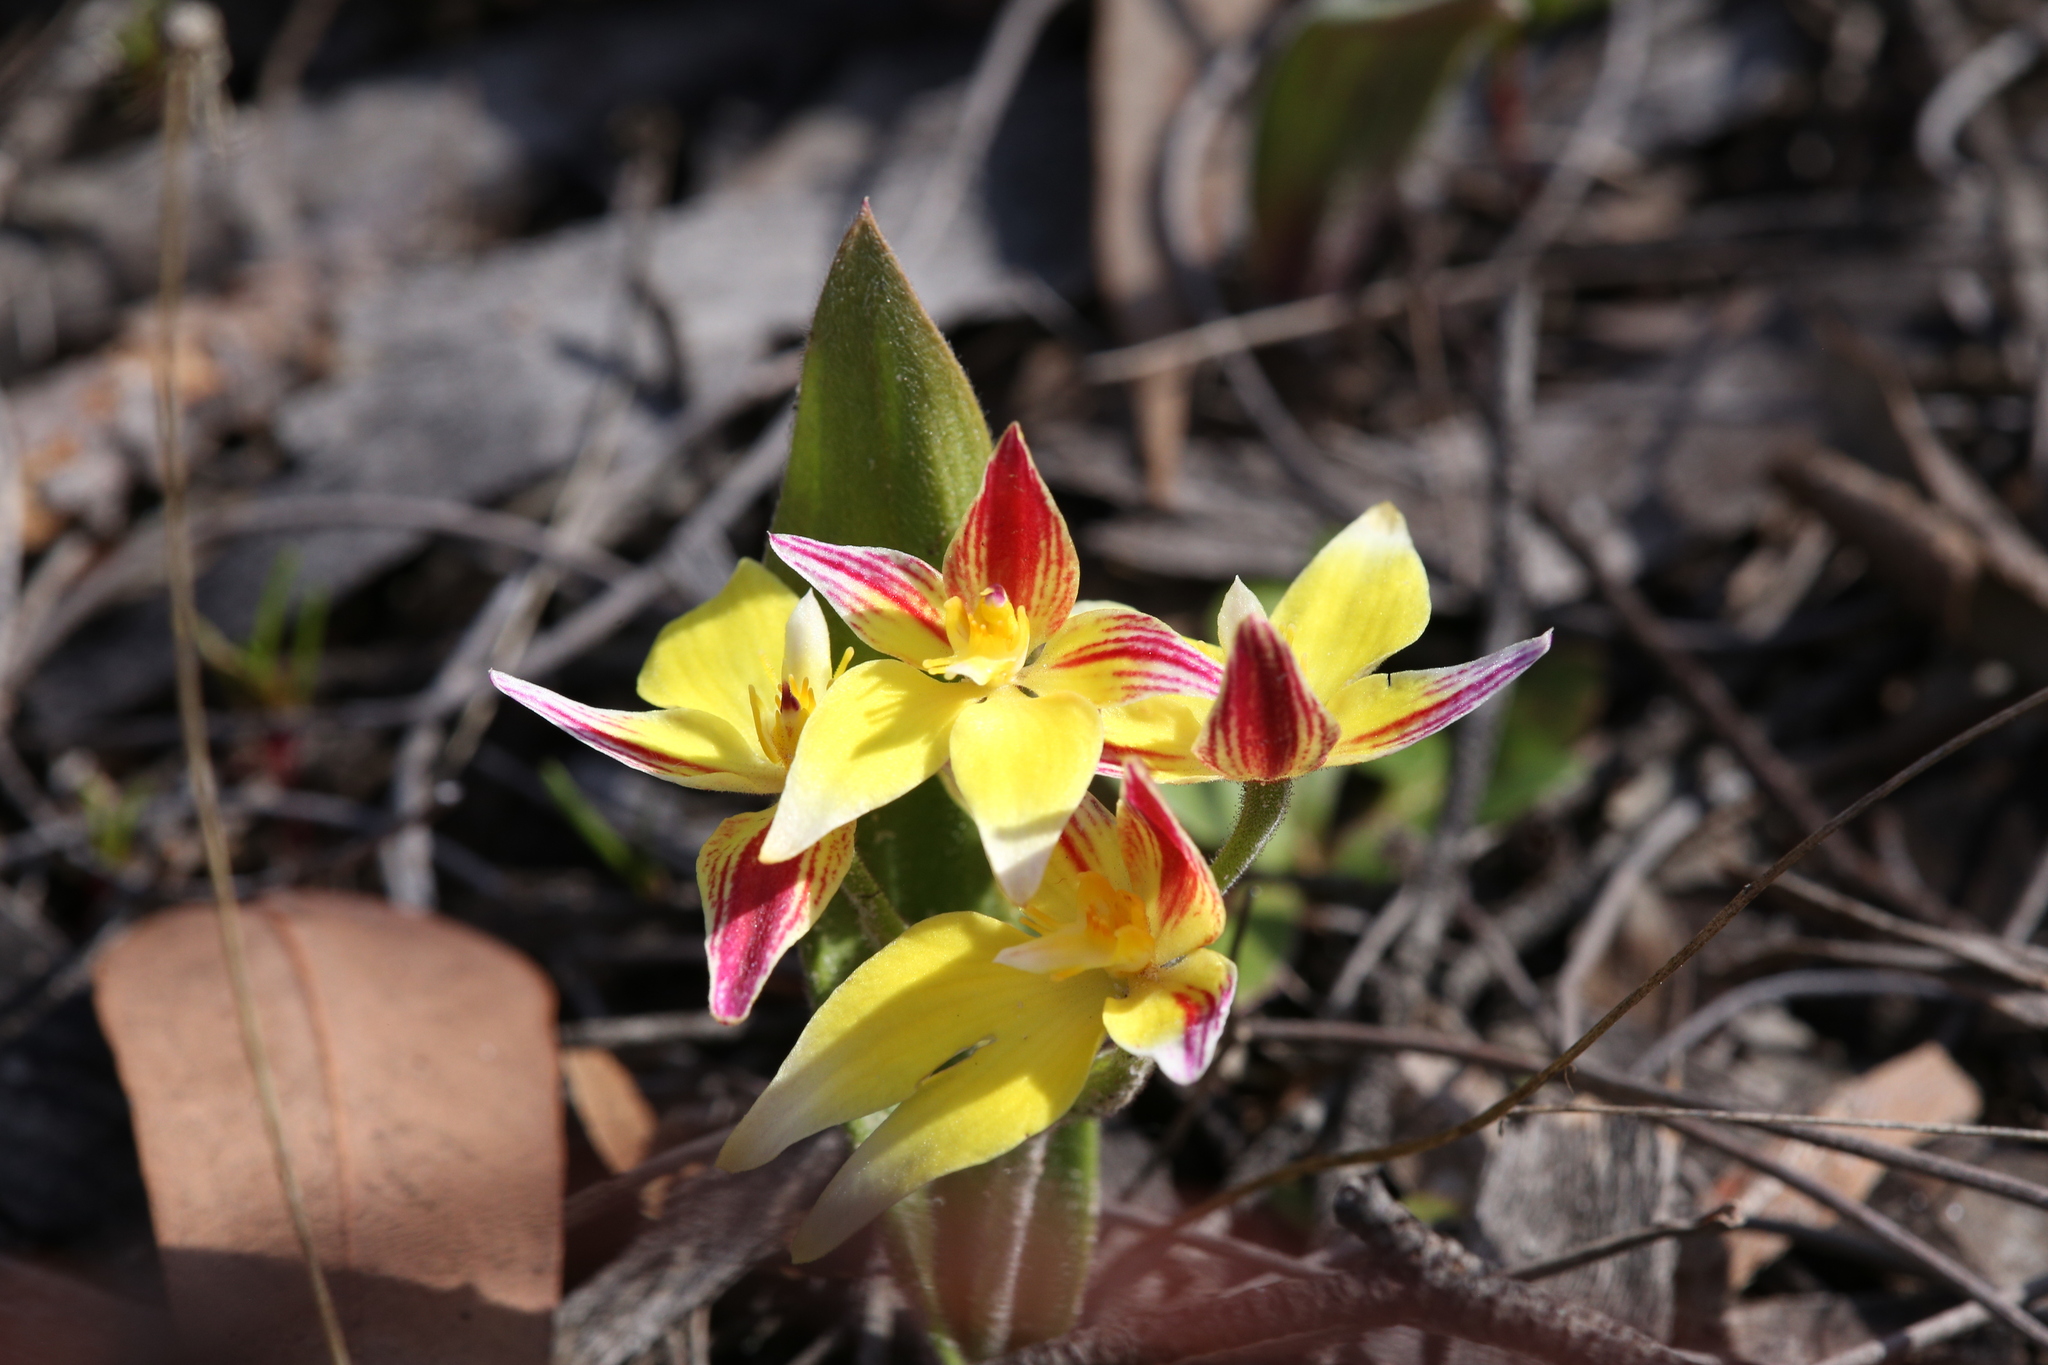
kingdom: Plantae
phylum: Tracheophyta
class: Liliopsida
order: Asparagales
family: Orchidaceae
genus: Caladenia
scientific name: Caladenia flava
